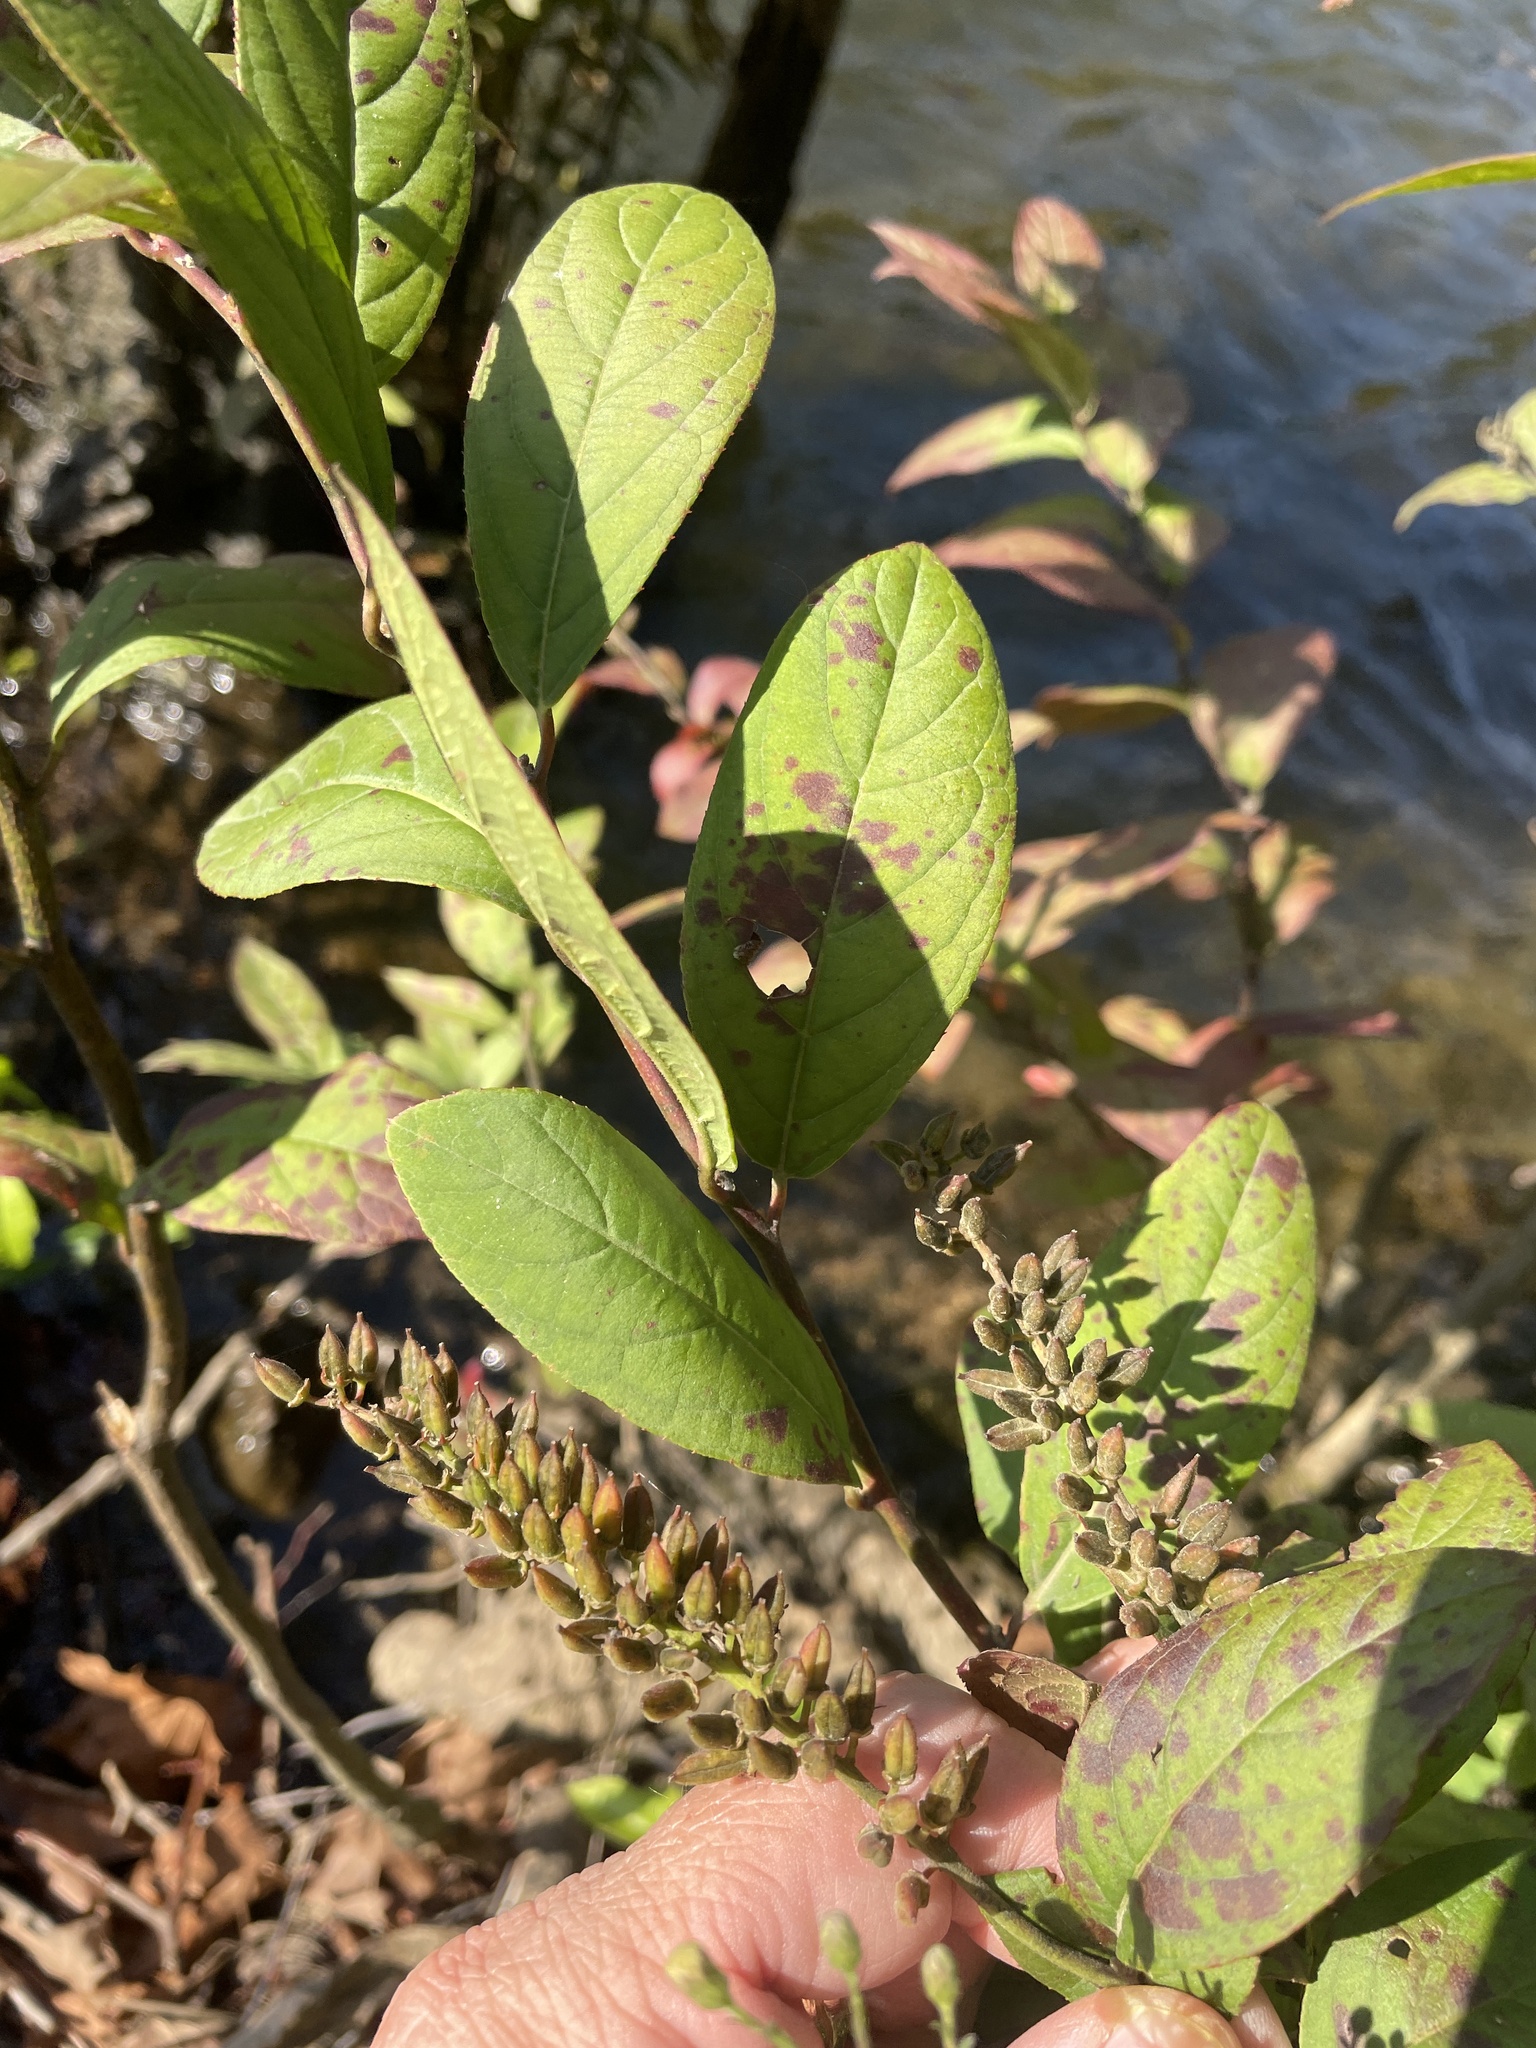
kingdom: Plantae
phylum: Tracheophyta
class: Magnoliopsida
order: Saxifragales
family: Iteaceae
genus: Itea
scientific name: Itea virginica
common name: Sweetspire
